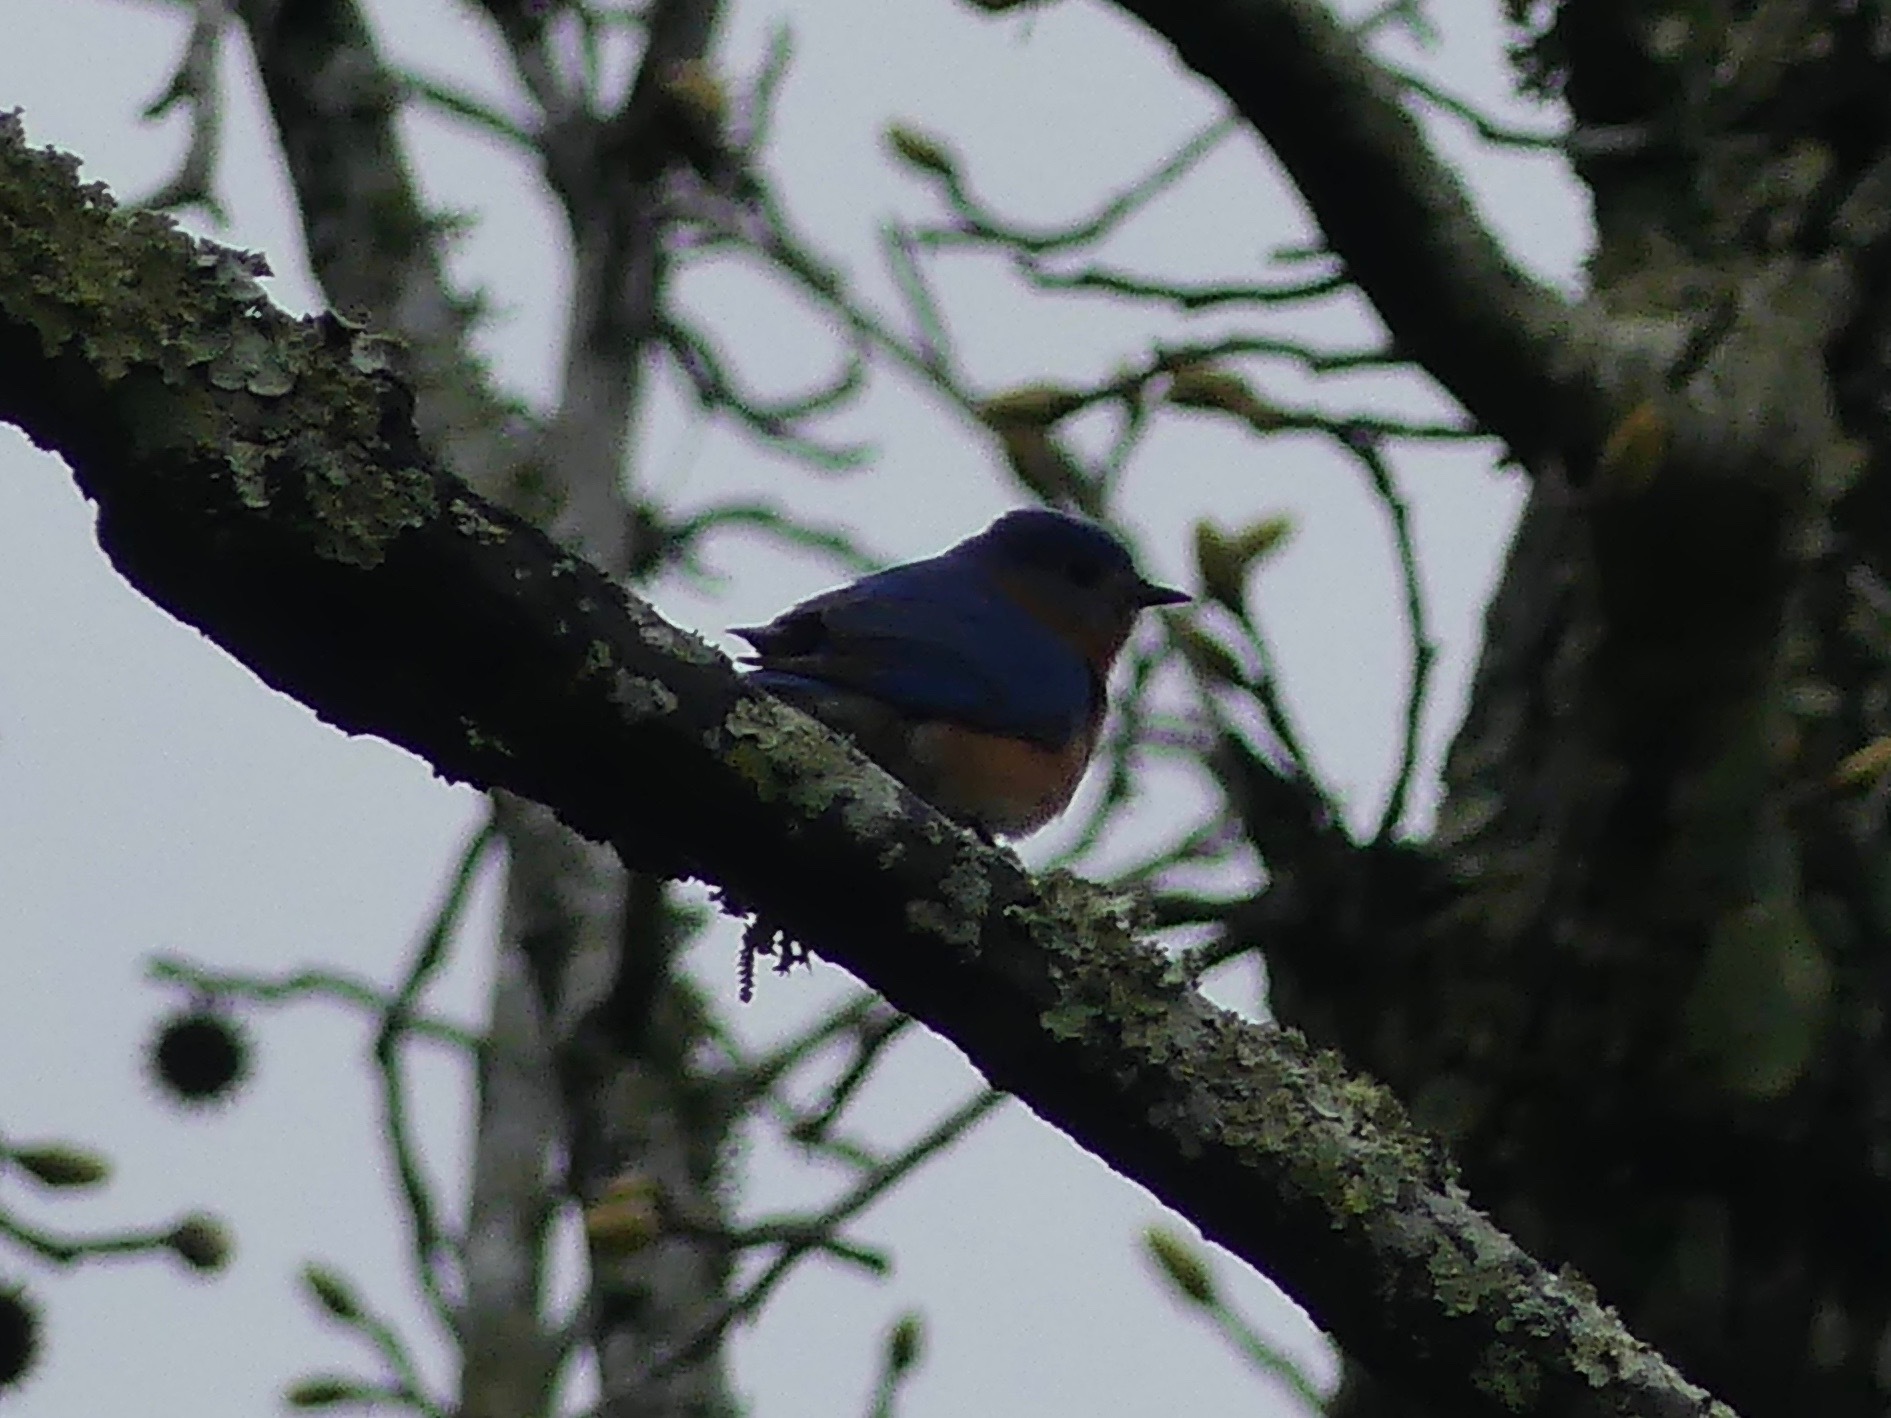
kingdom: Animalia
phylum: Chordata
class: Aves
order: Passeriformes
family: Turdidae
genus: Sialia
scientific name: Sialia sialis
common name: Eastern bluebird
